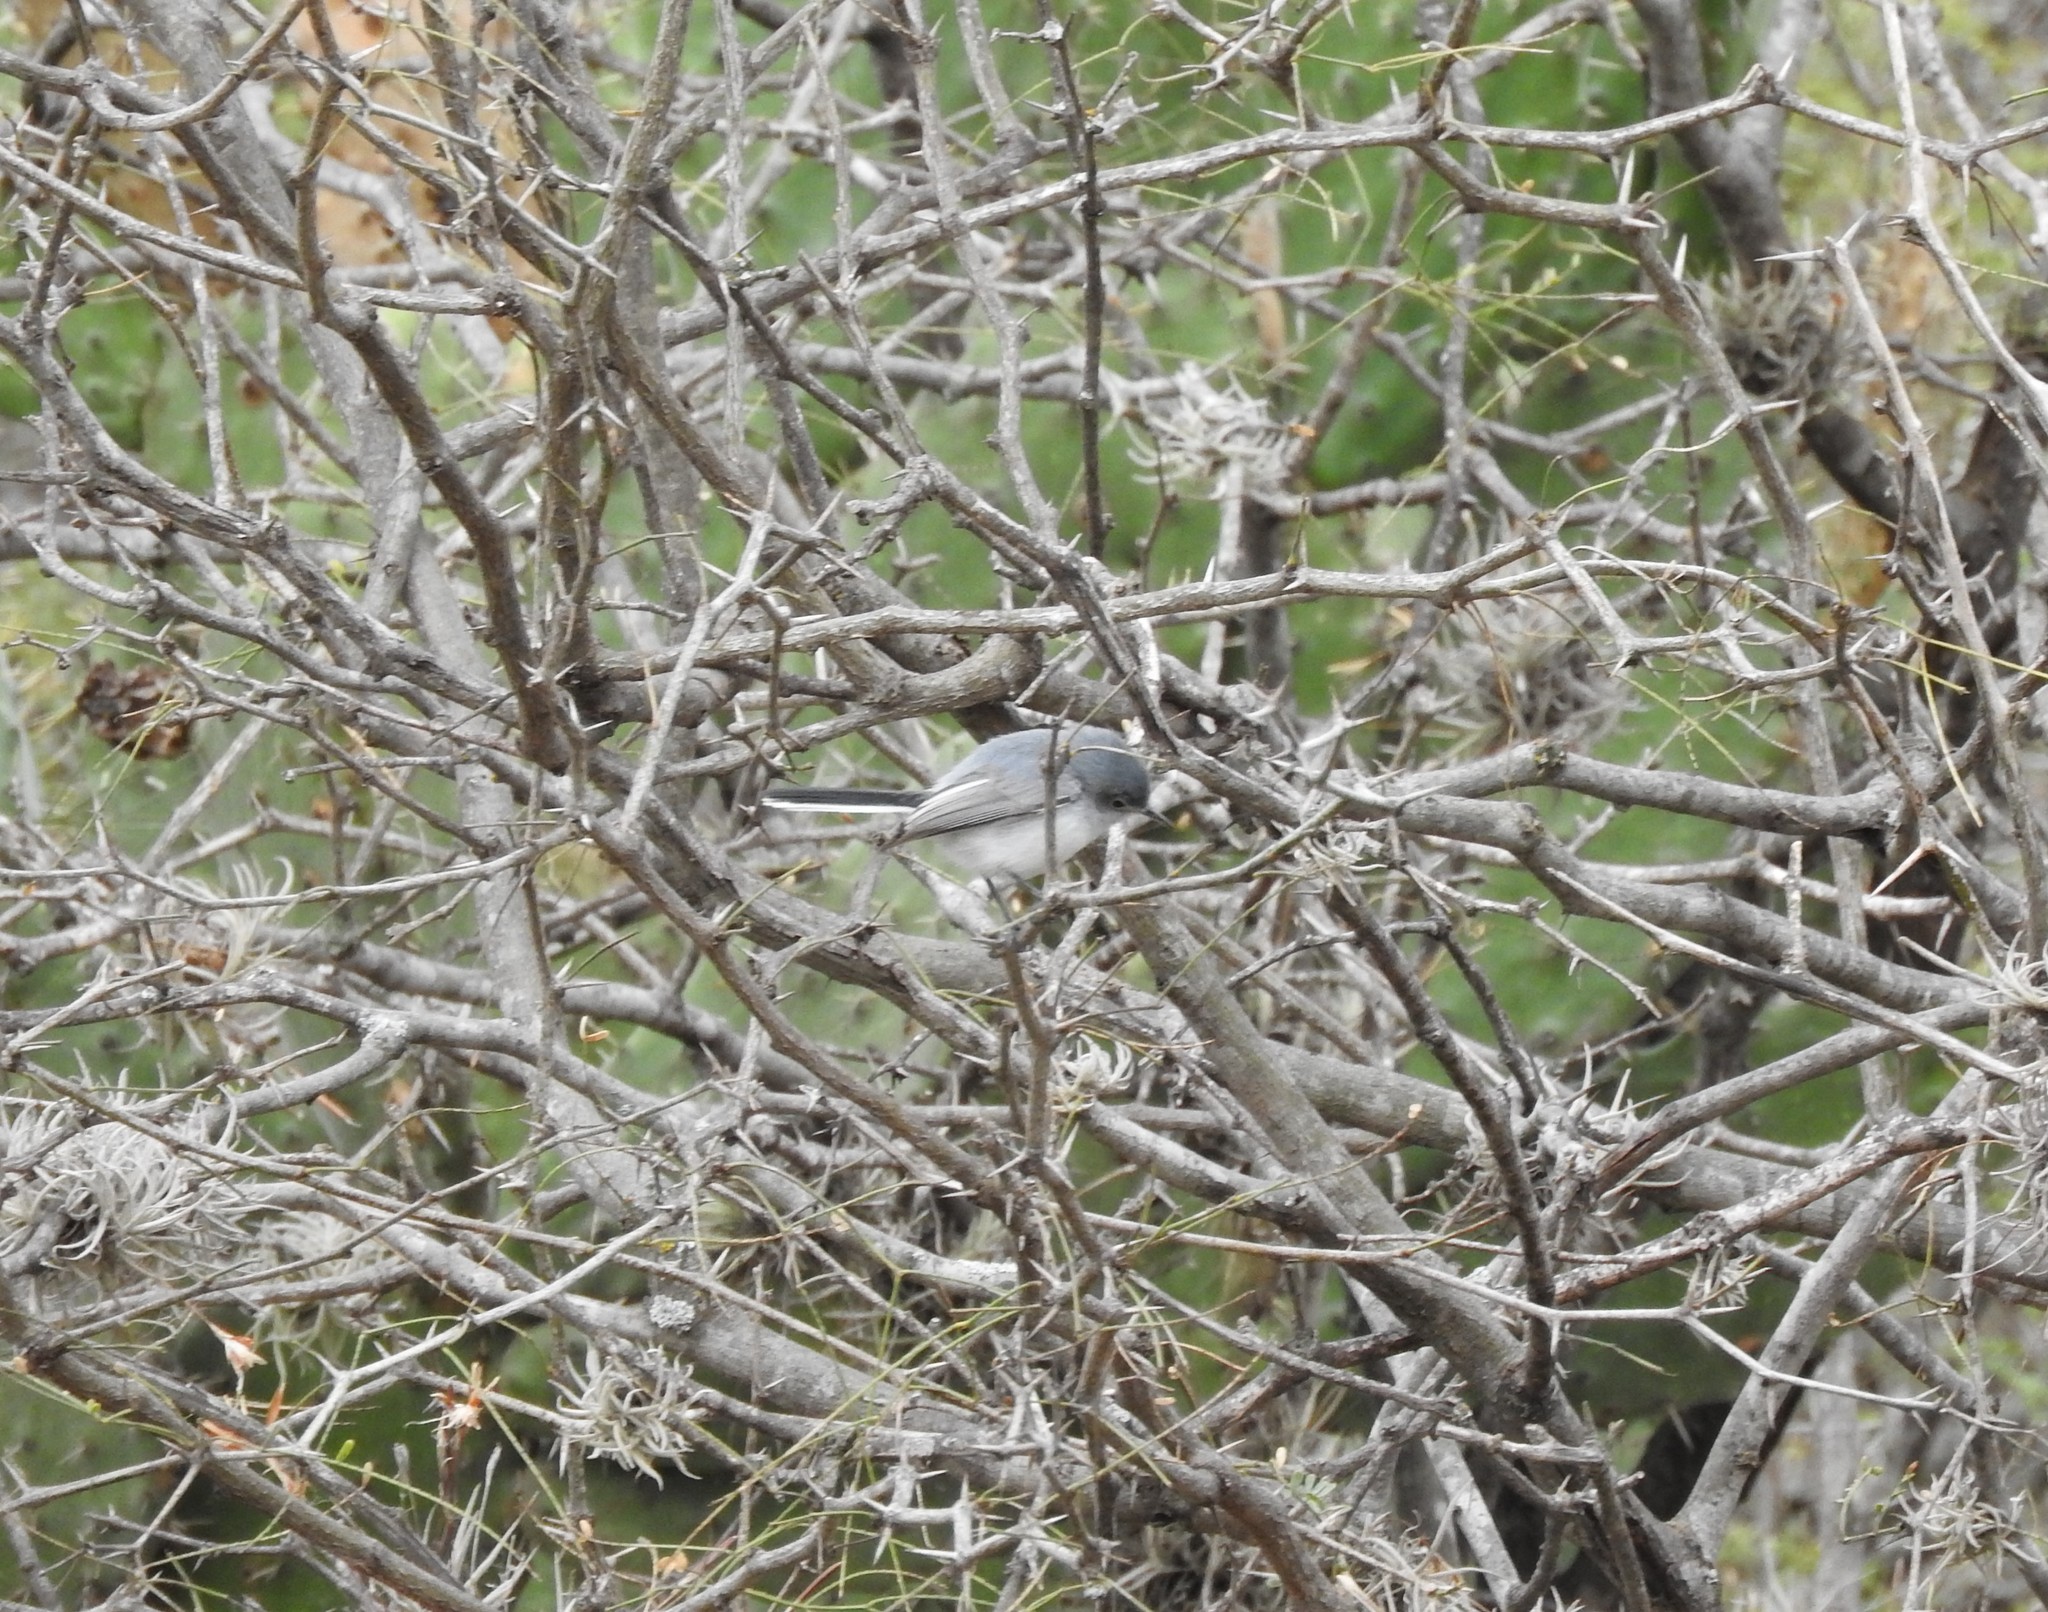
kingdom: Animalia
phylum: Chordata
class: Aves
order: Passeriformes
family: Polioptilidae
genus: Polioptila
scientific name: Polioptila caerulea
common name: Blue-gray gnatcatcher
